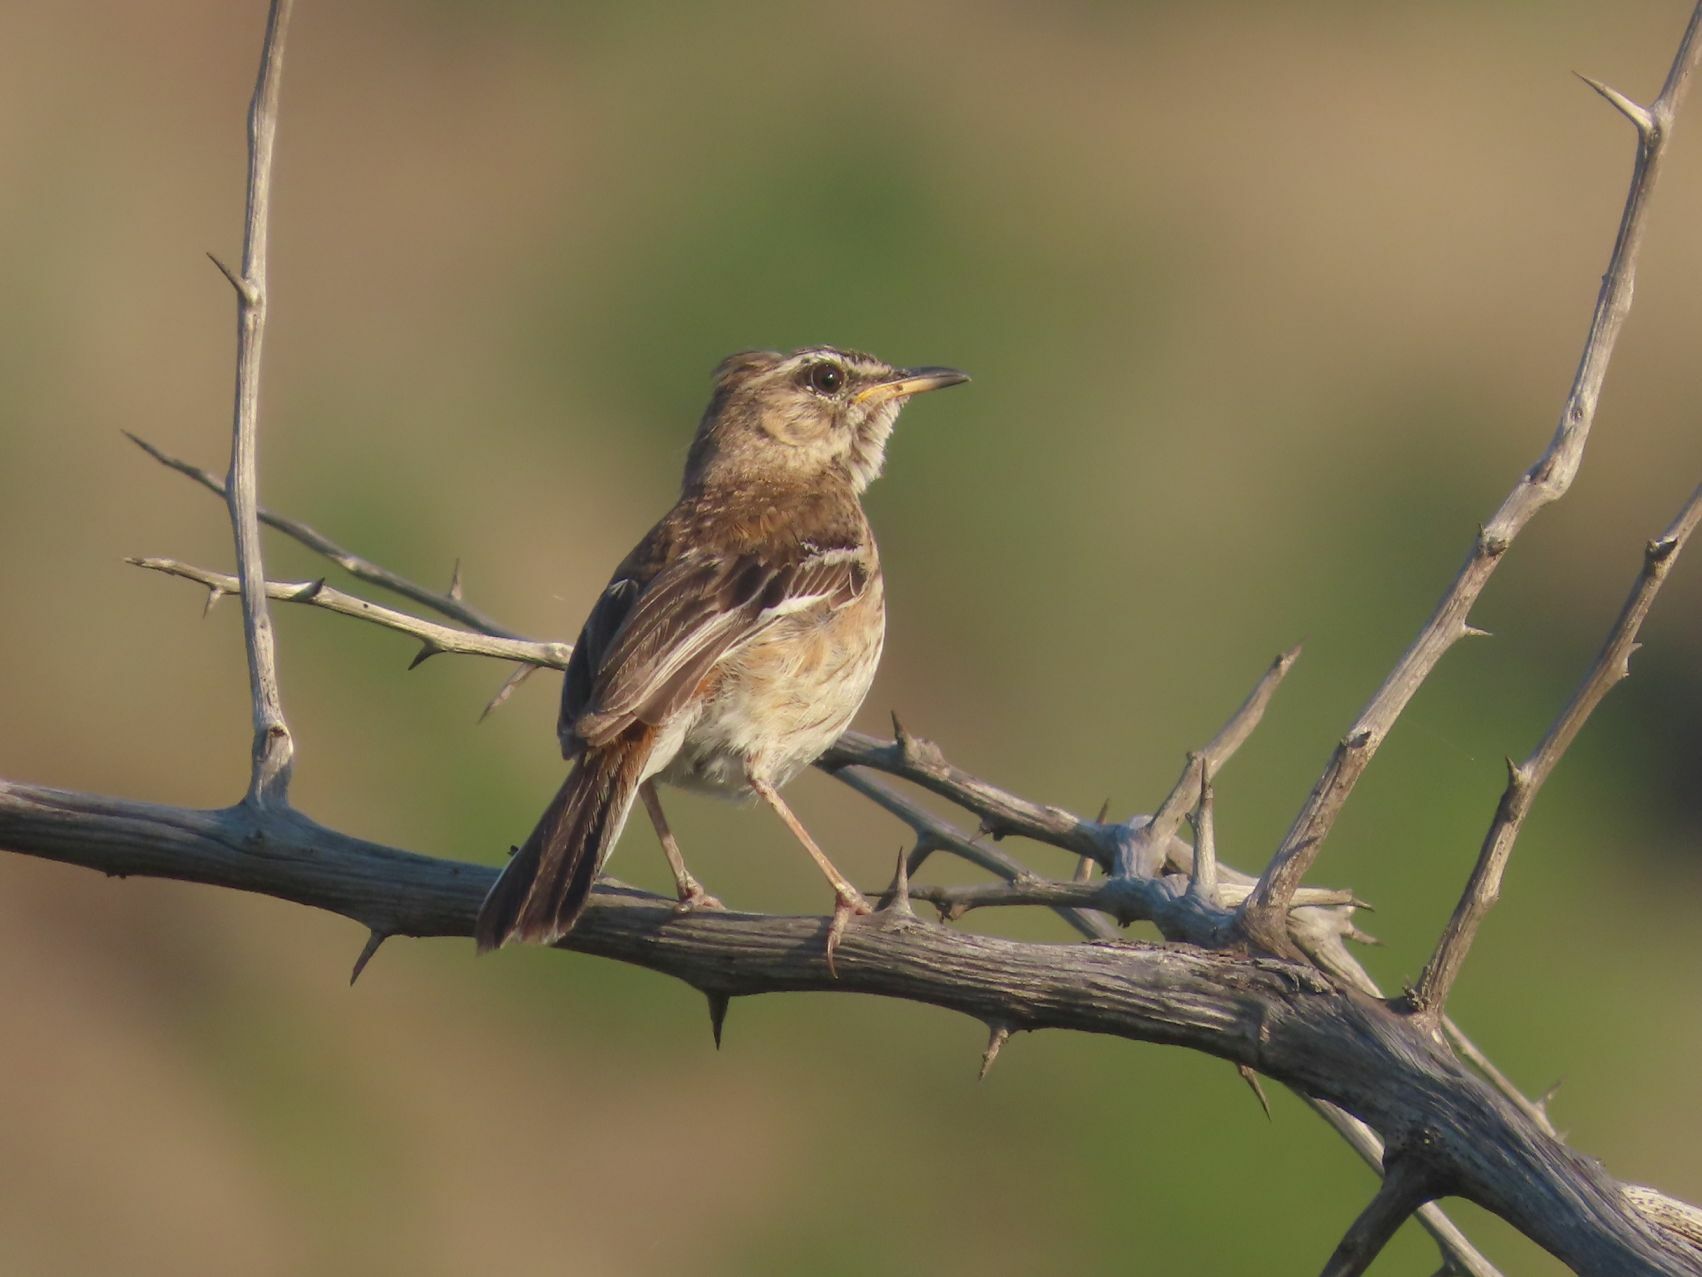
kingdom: Animalia
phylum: Chordata
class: Aves
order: Passeriformes
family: Muscicapidae
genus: Erythropygia
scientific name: Erythropygia leucophrys
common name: White-browed scrub robin
